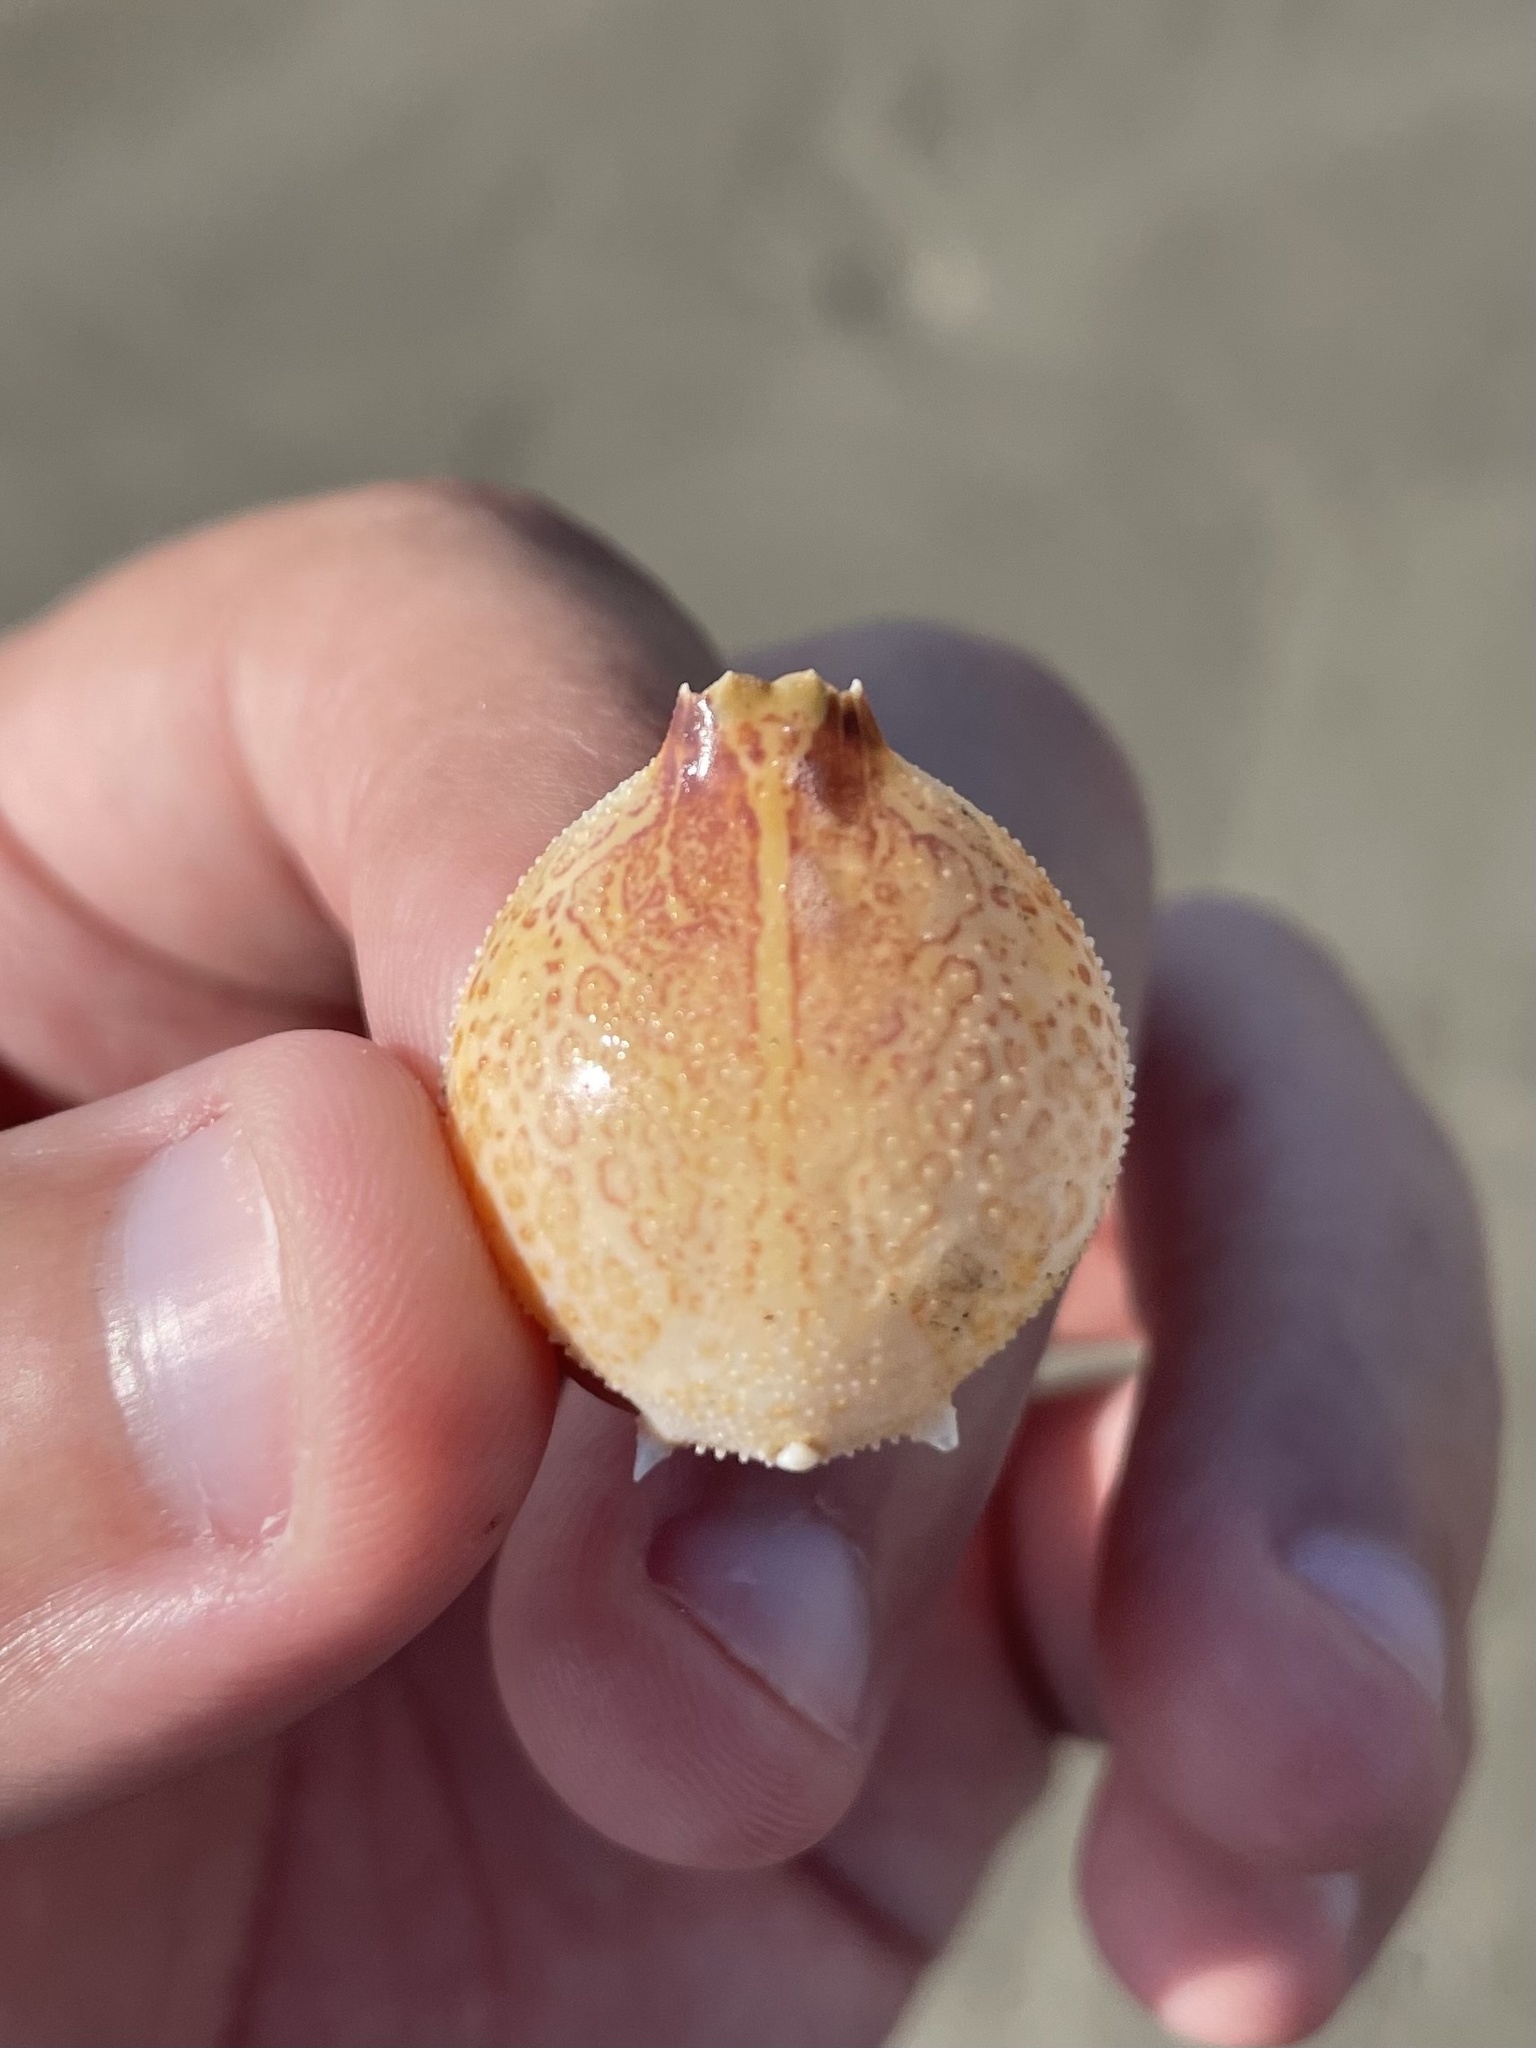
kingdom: Animalia
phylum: Arthropoda
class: Malacostraca
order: Decapoda
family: Leucosiidae
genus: Persephona
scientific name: Persephona aquilonaris
